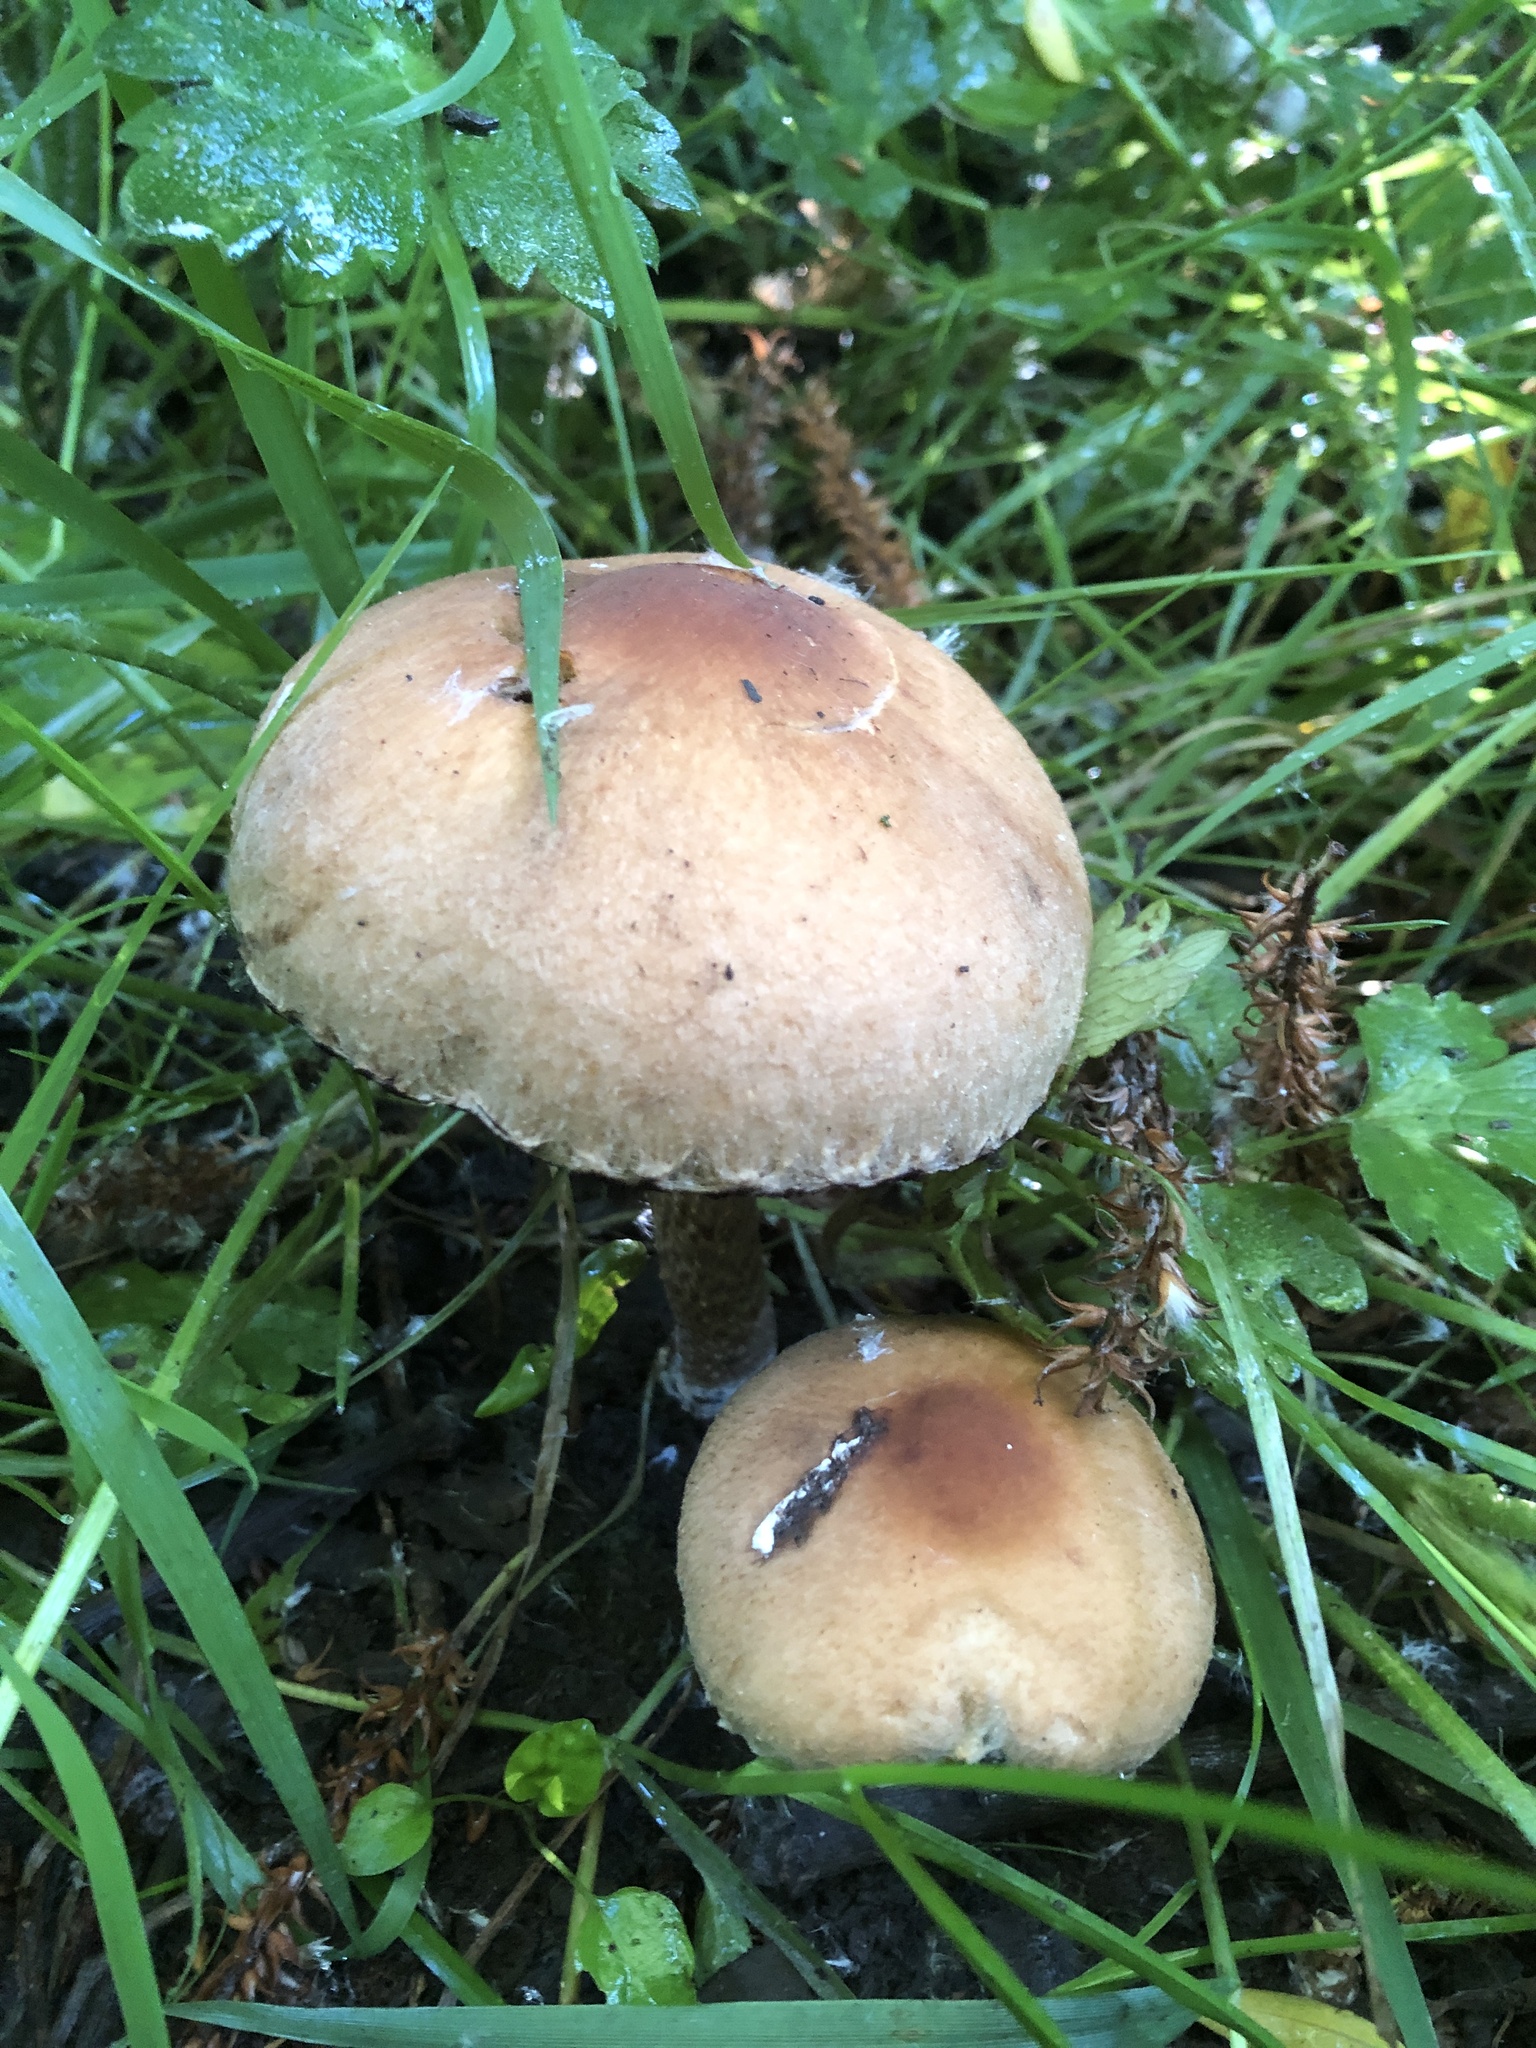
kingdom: Fungi
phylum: Basidiomycota
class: Agaricomycetes
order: Agaricales
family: Strophariaceae
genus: Agrocybe
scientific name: Agrocybe pediades
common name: Common fieldcap
